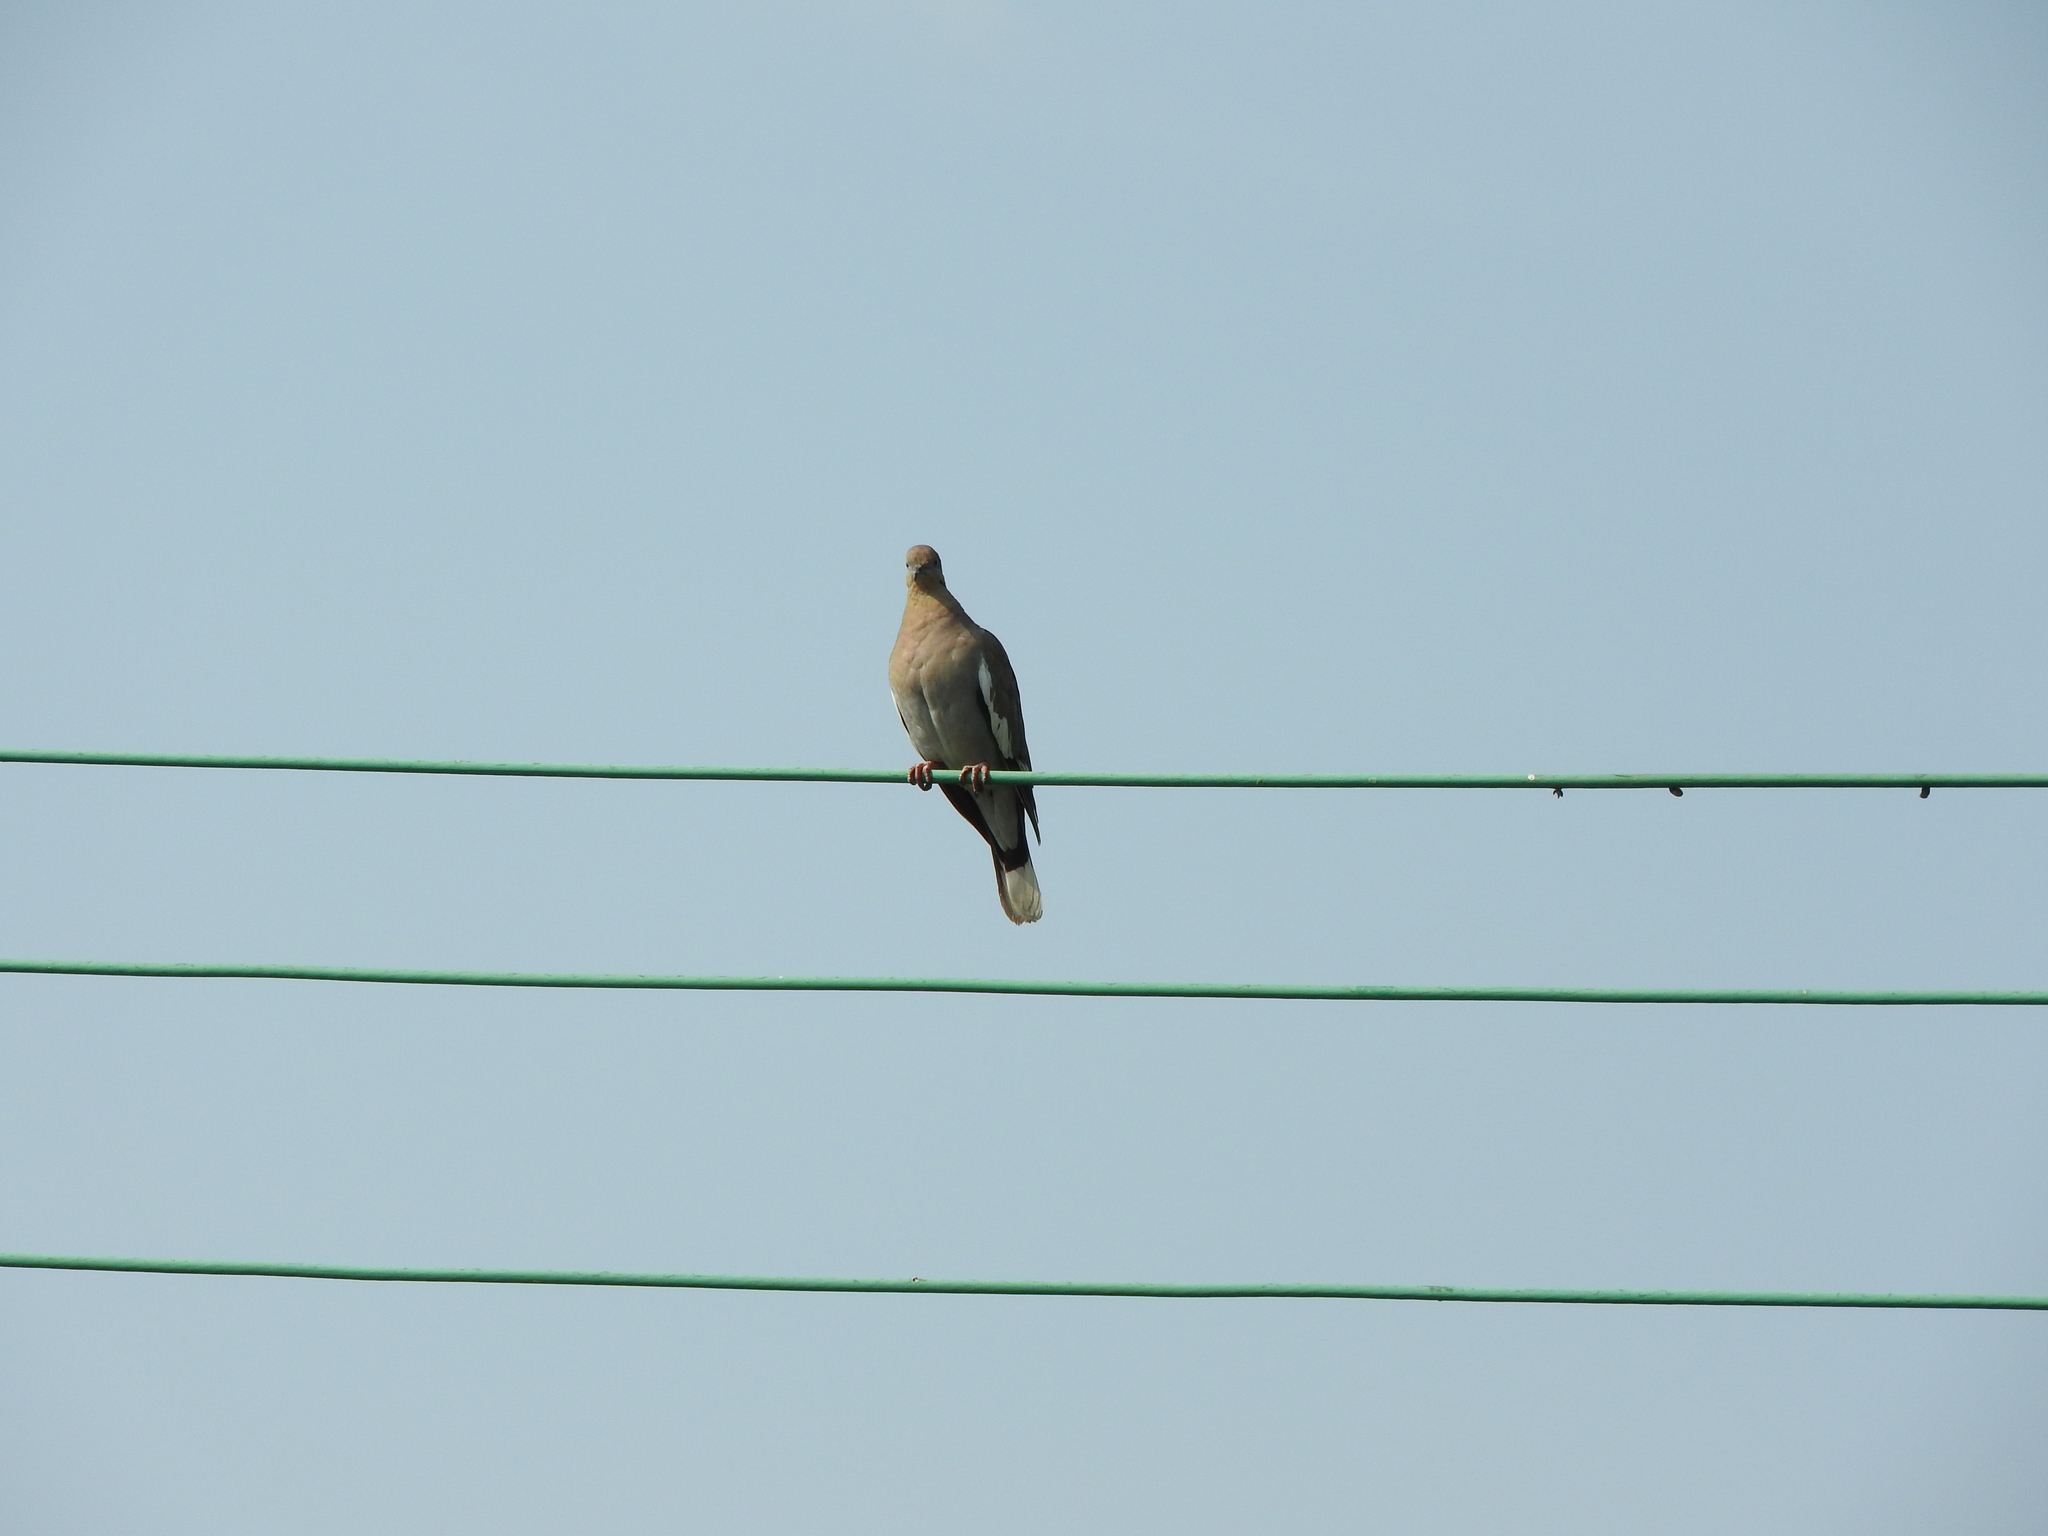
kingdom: Animalia
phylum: Chordata
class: Aves
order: Columbiformes
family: Columbidae
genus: Zenaida
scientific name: Zenaida asiatica
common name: White-winged dove
